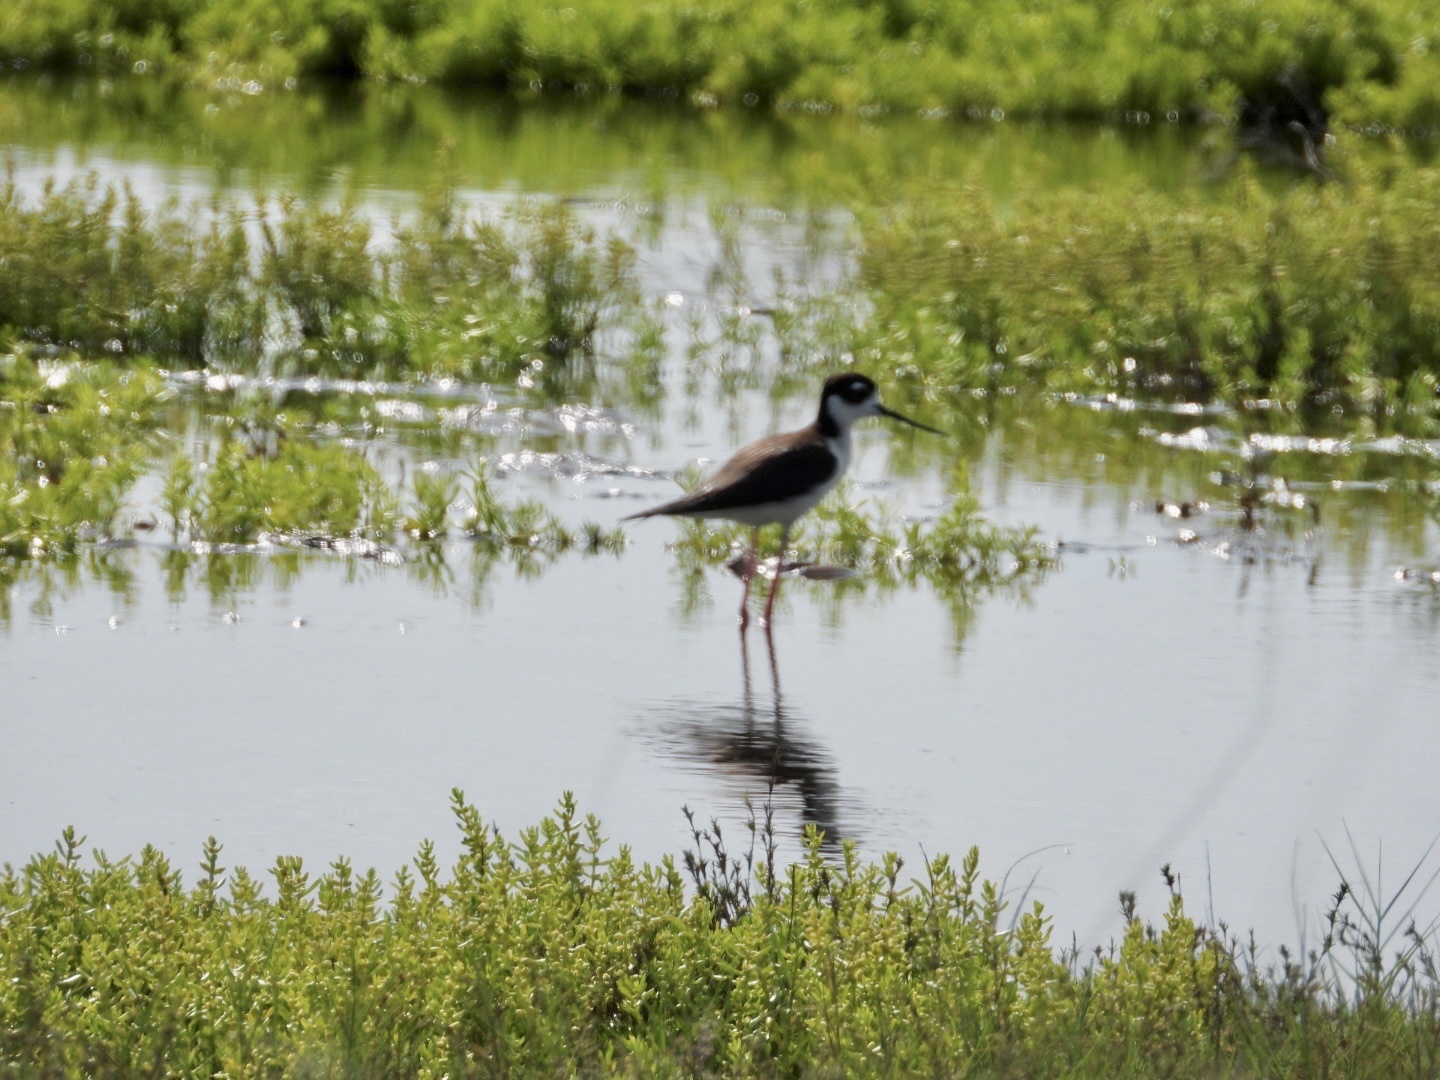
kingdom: Animalia
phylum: Chordata
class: Aves
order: Charadriiformes
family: Recurvirostridae
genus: Himantopus
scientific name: Himantopus mexicanus
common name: Black-necked stilt
